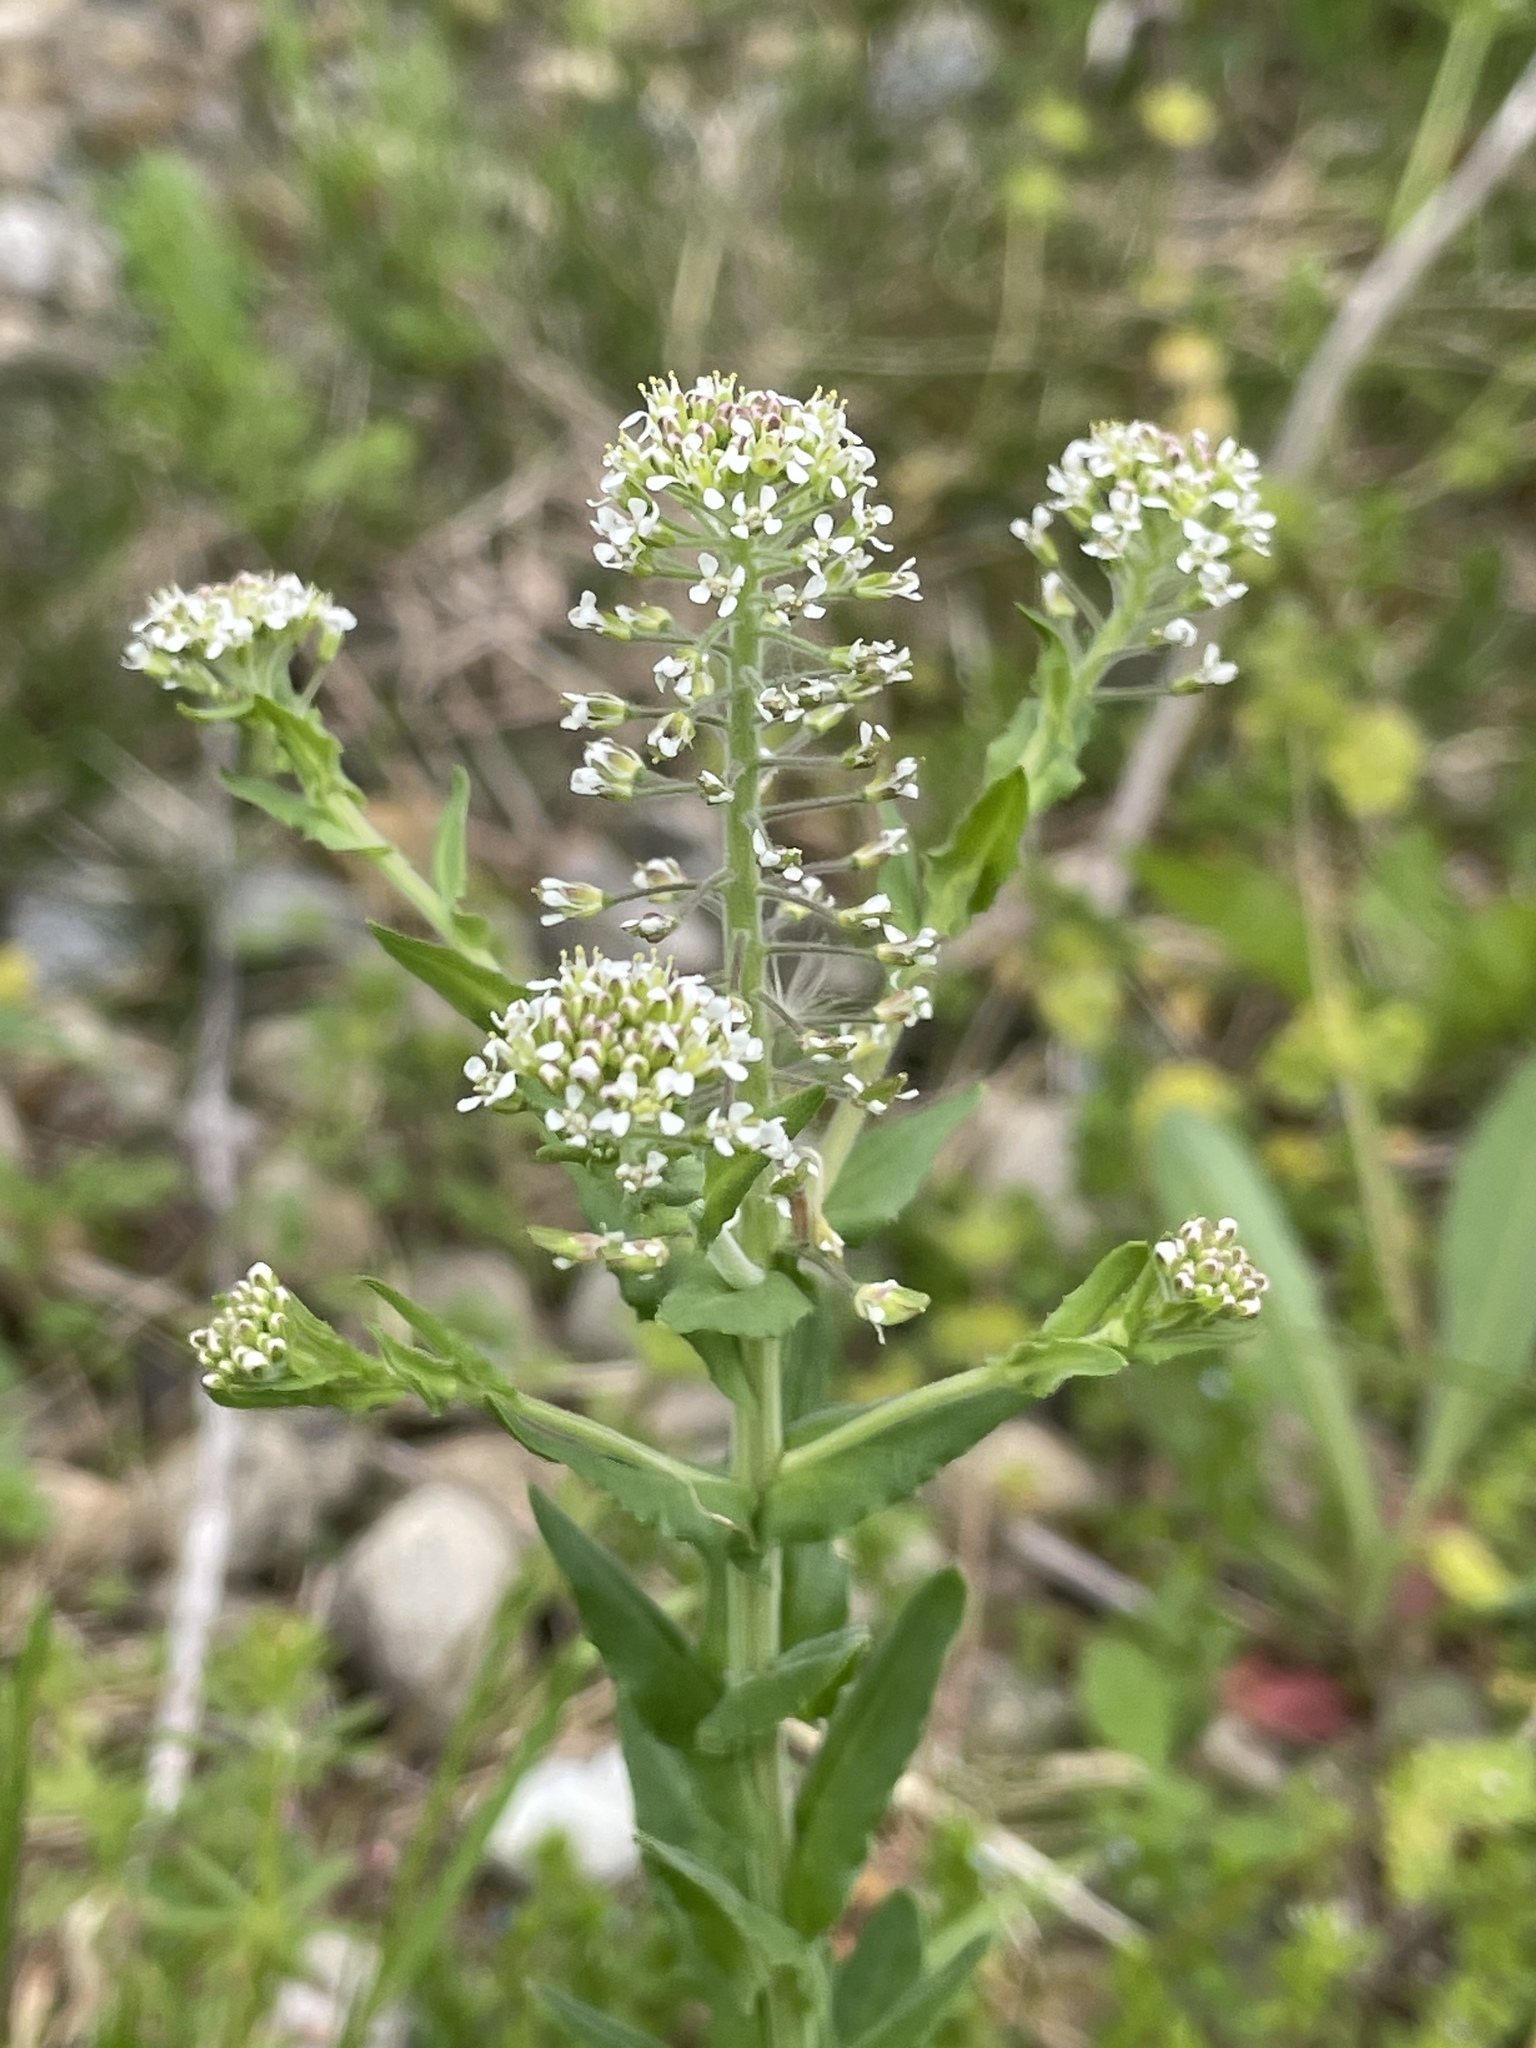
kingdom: Plantae
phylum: Tracheophyta
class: Magnoliopsida
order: Brassicales
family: Brassicaceae
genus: Lepidium
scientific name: Lepidium campestre
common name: Field pepperwort
